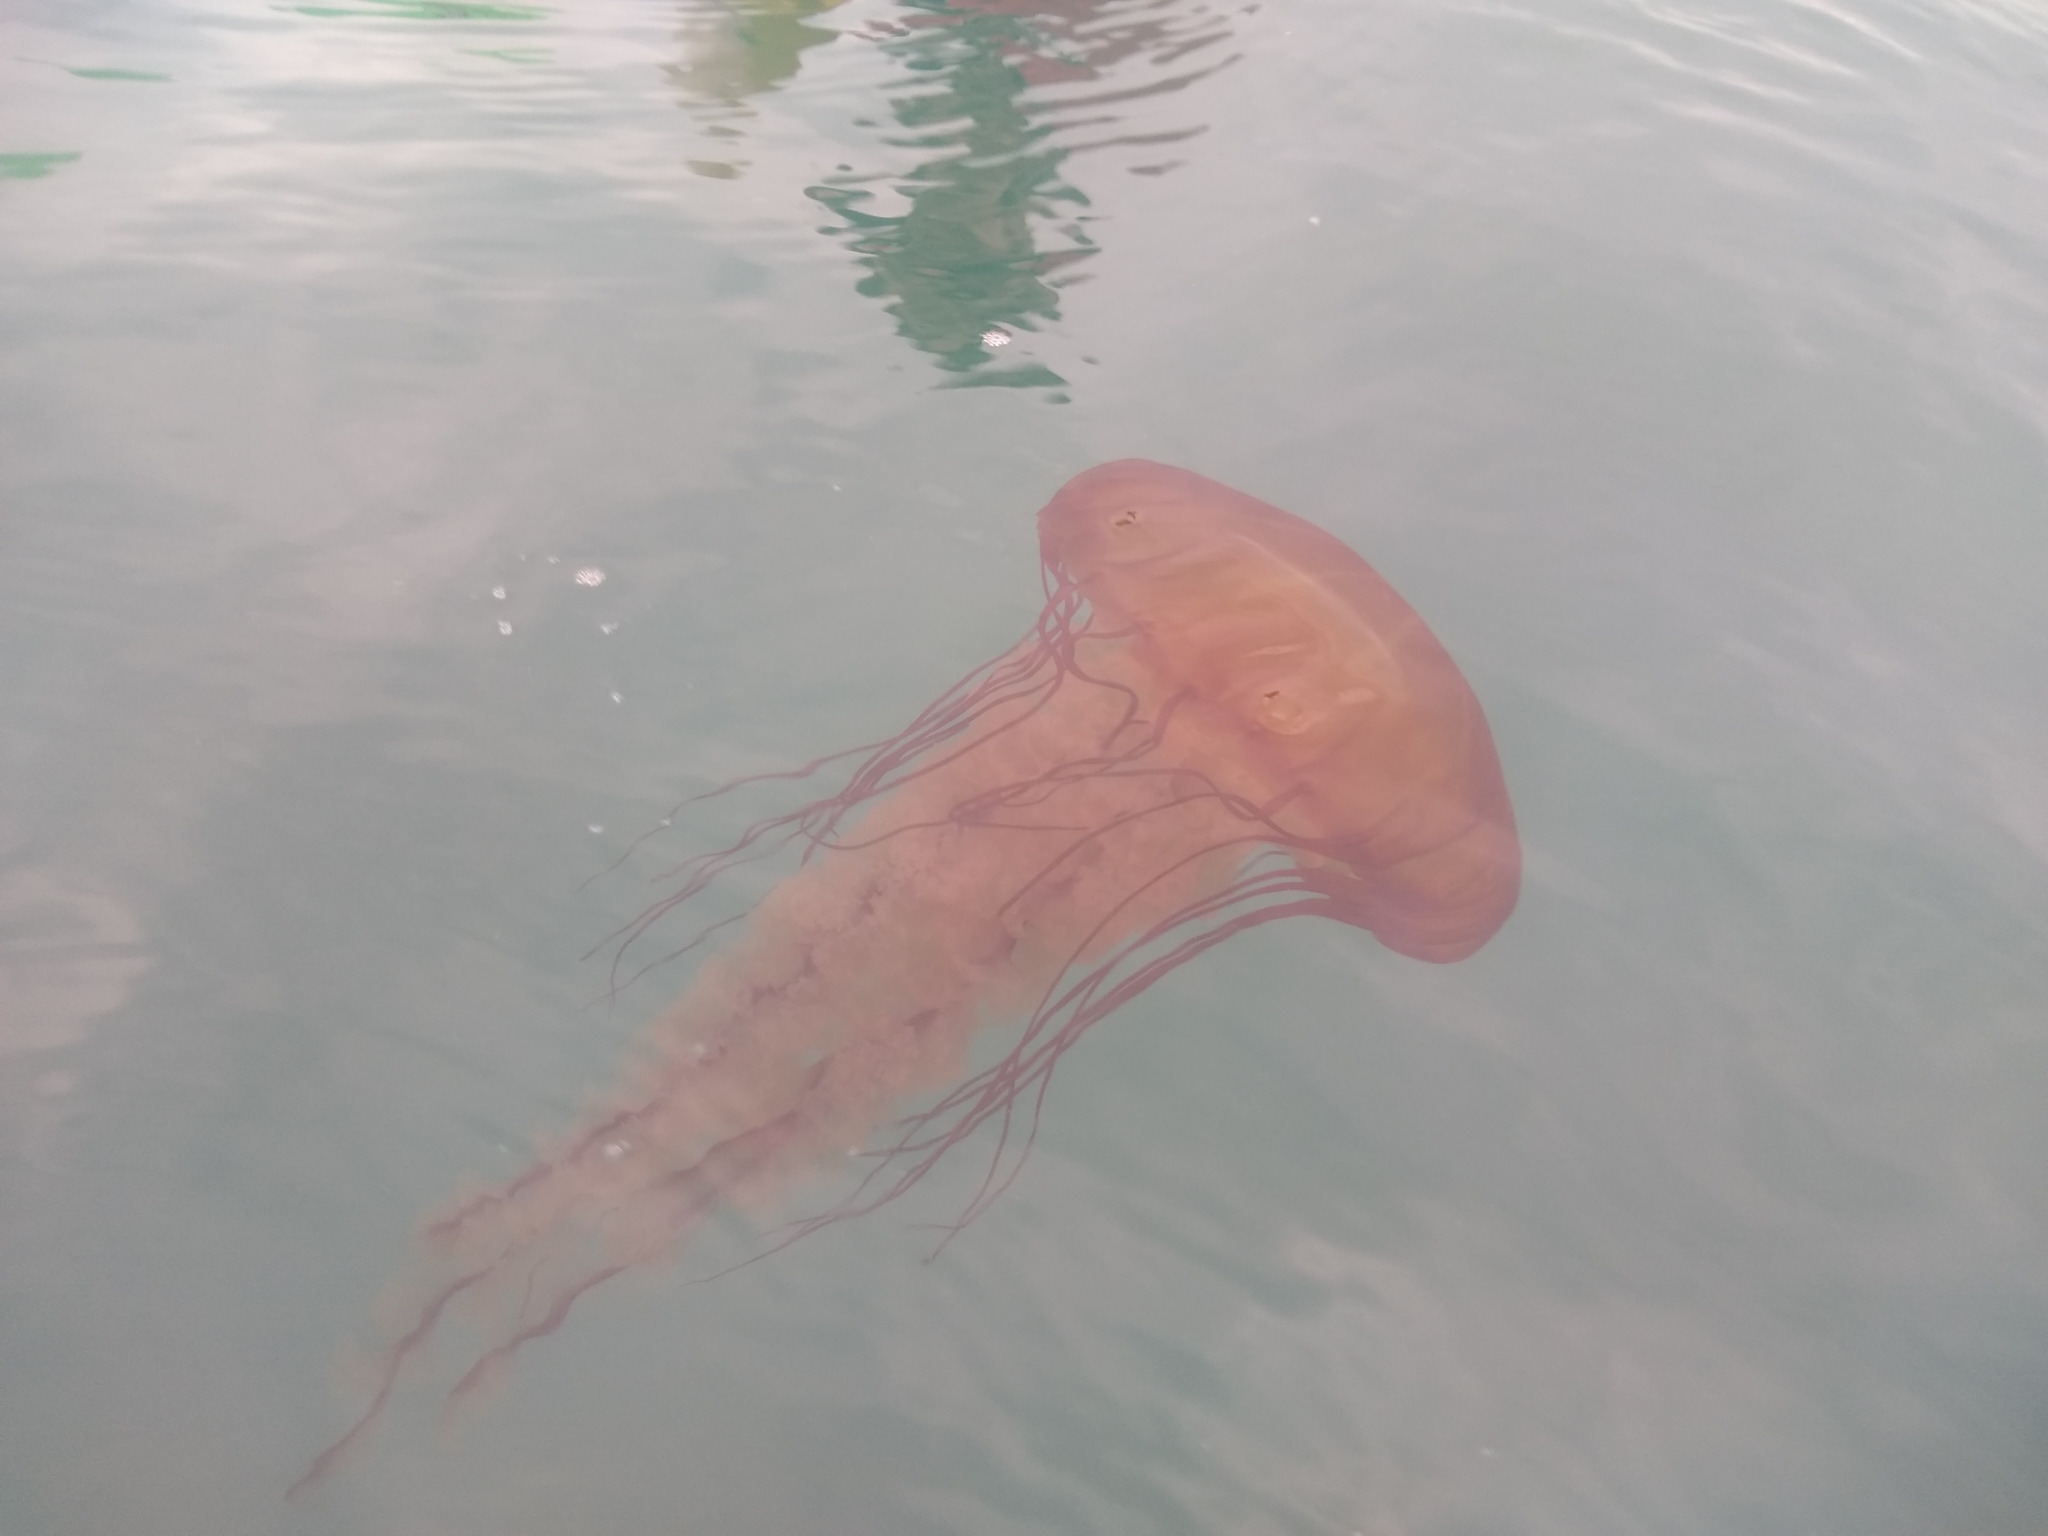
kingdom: Animalia
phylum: Cnidaria
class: Scyphozoa
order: Semaeostomeae
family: Pelagiidae
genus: Chrysaora
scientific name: Chrysaora fuscescens
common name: Sea nettle
